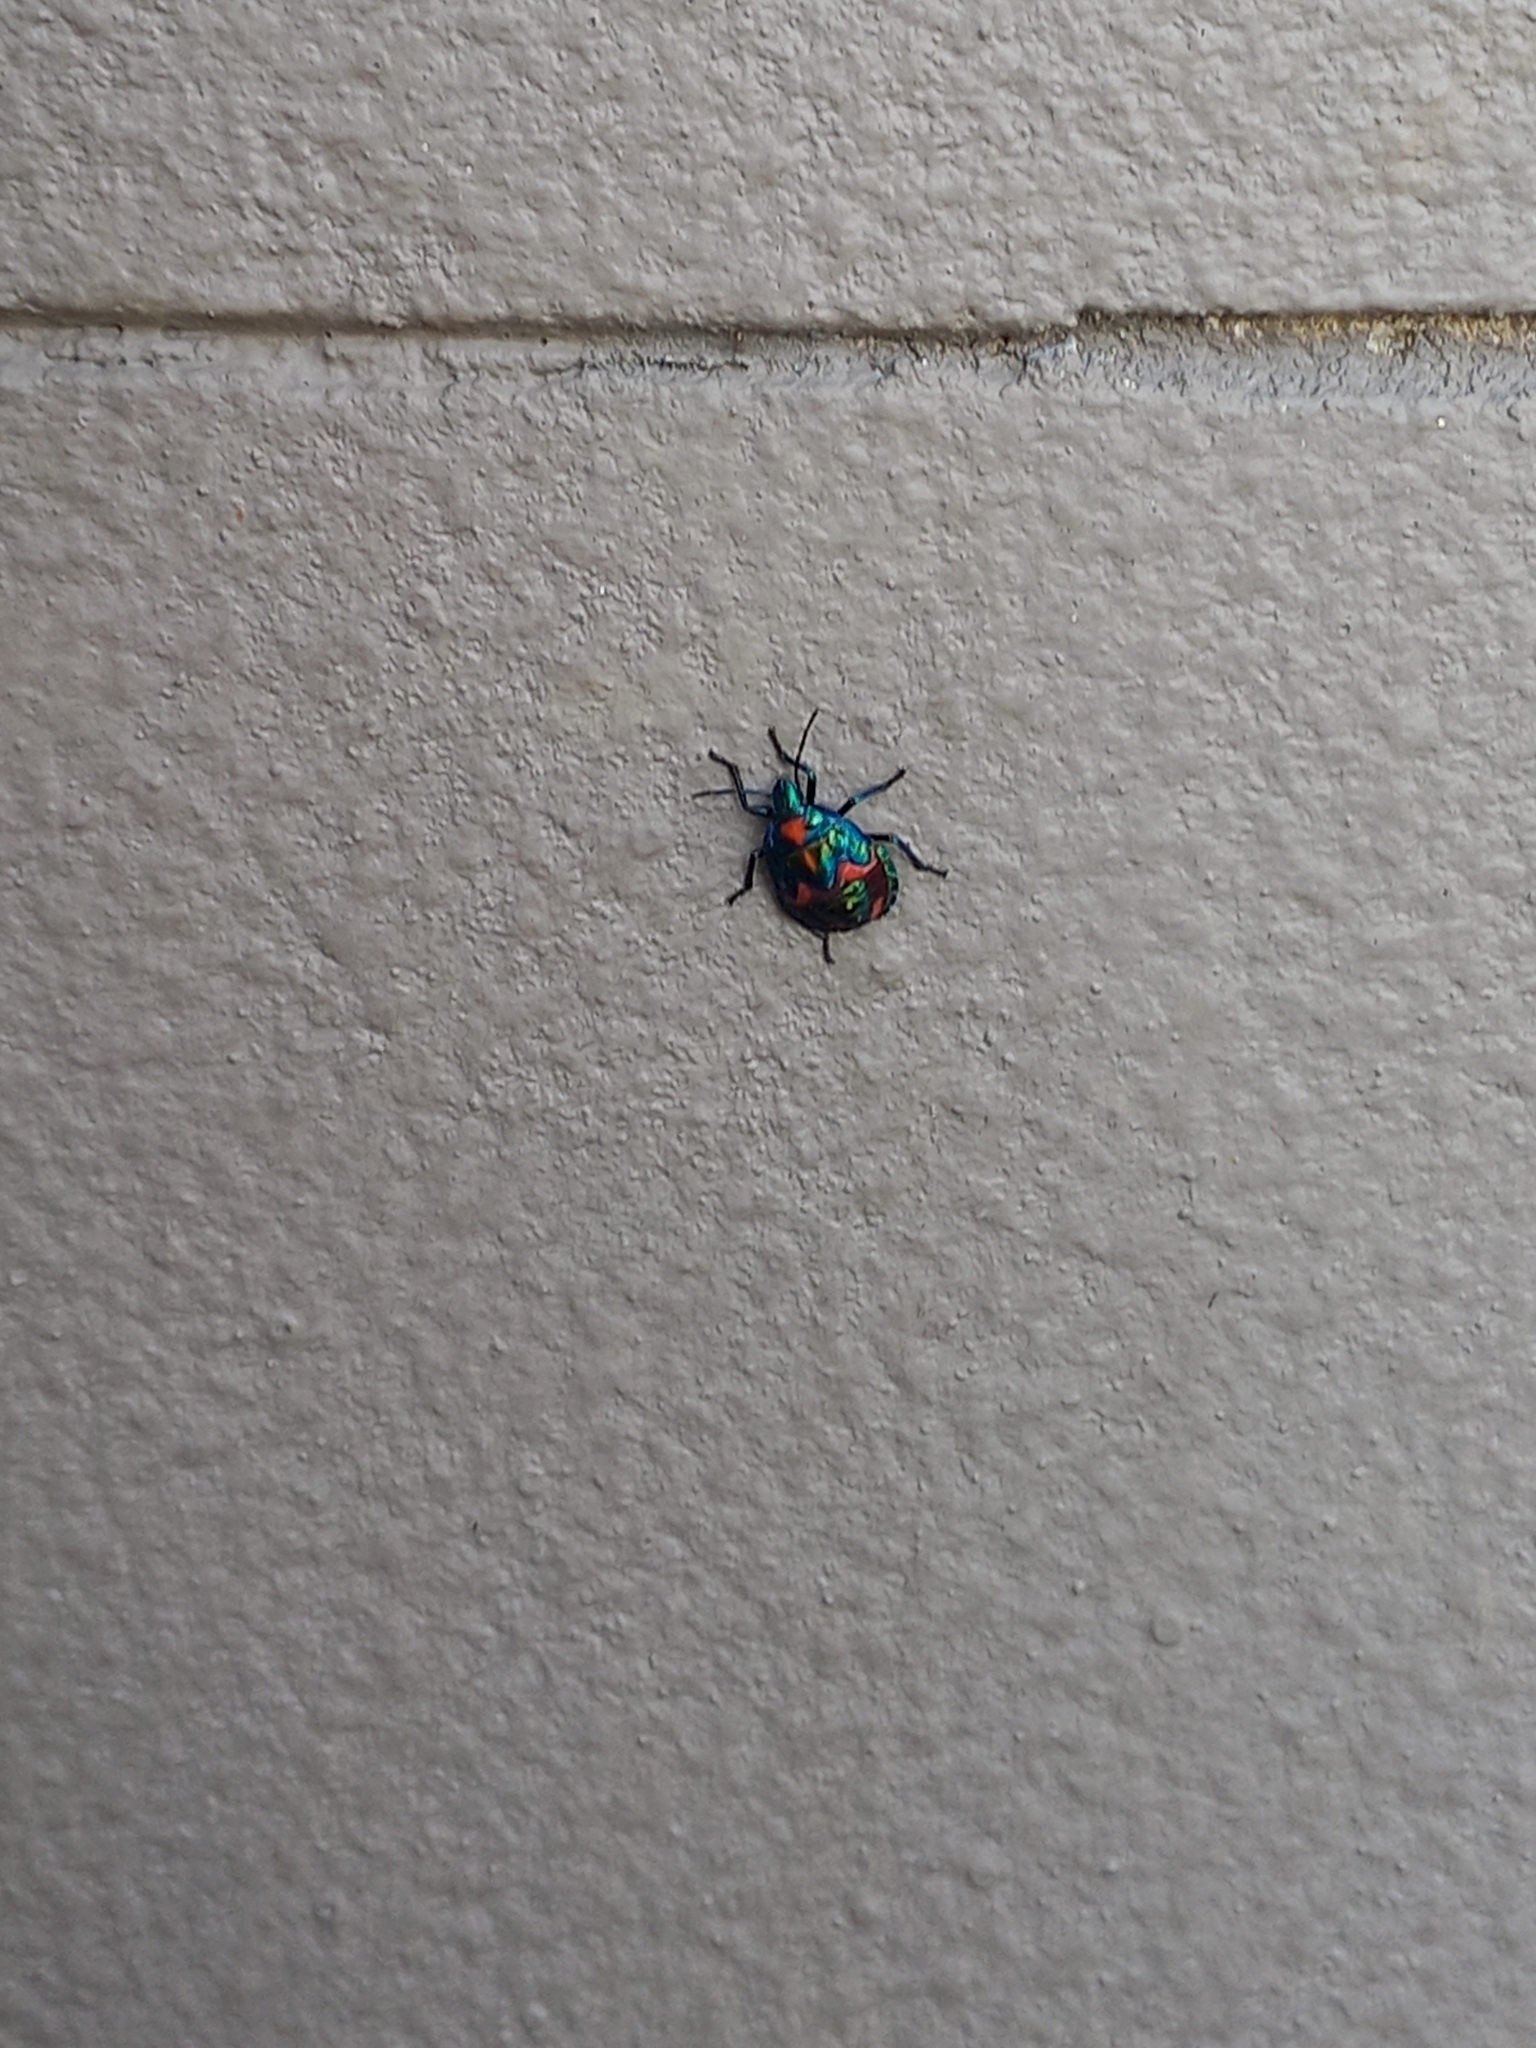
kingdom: Animalia
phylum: Arthropoda
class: Insecta
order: Hemiptera
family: Scutelleridae
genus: Tectocoris
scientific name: Tectocoris diophthalmus
